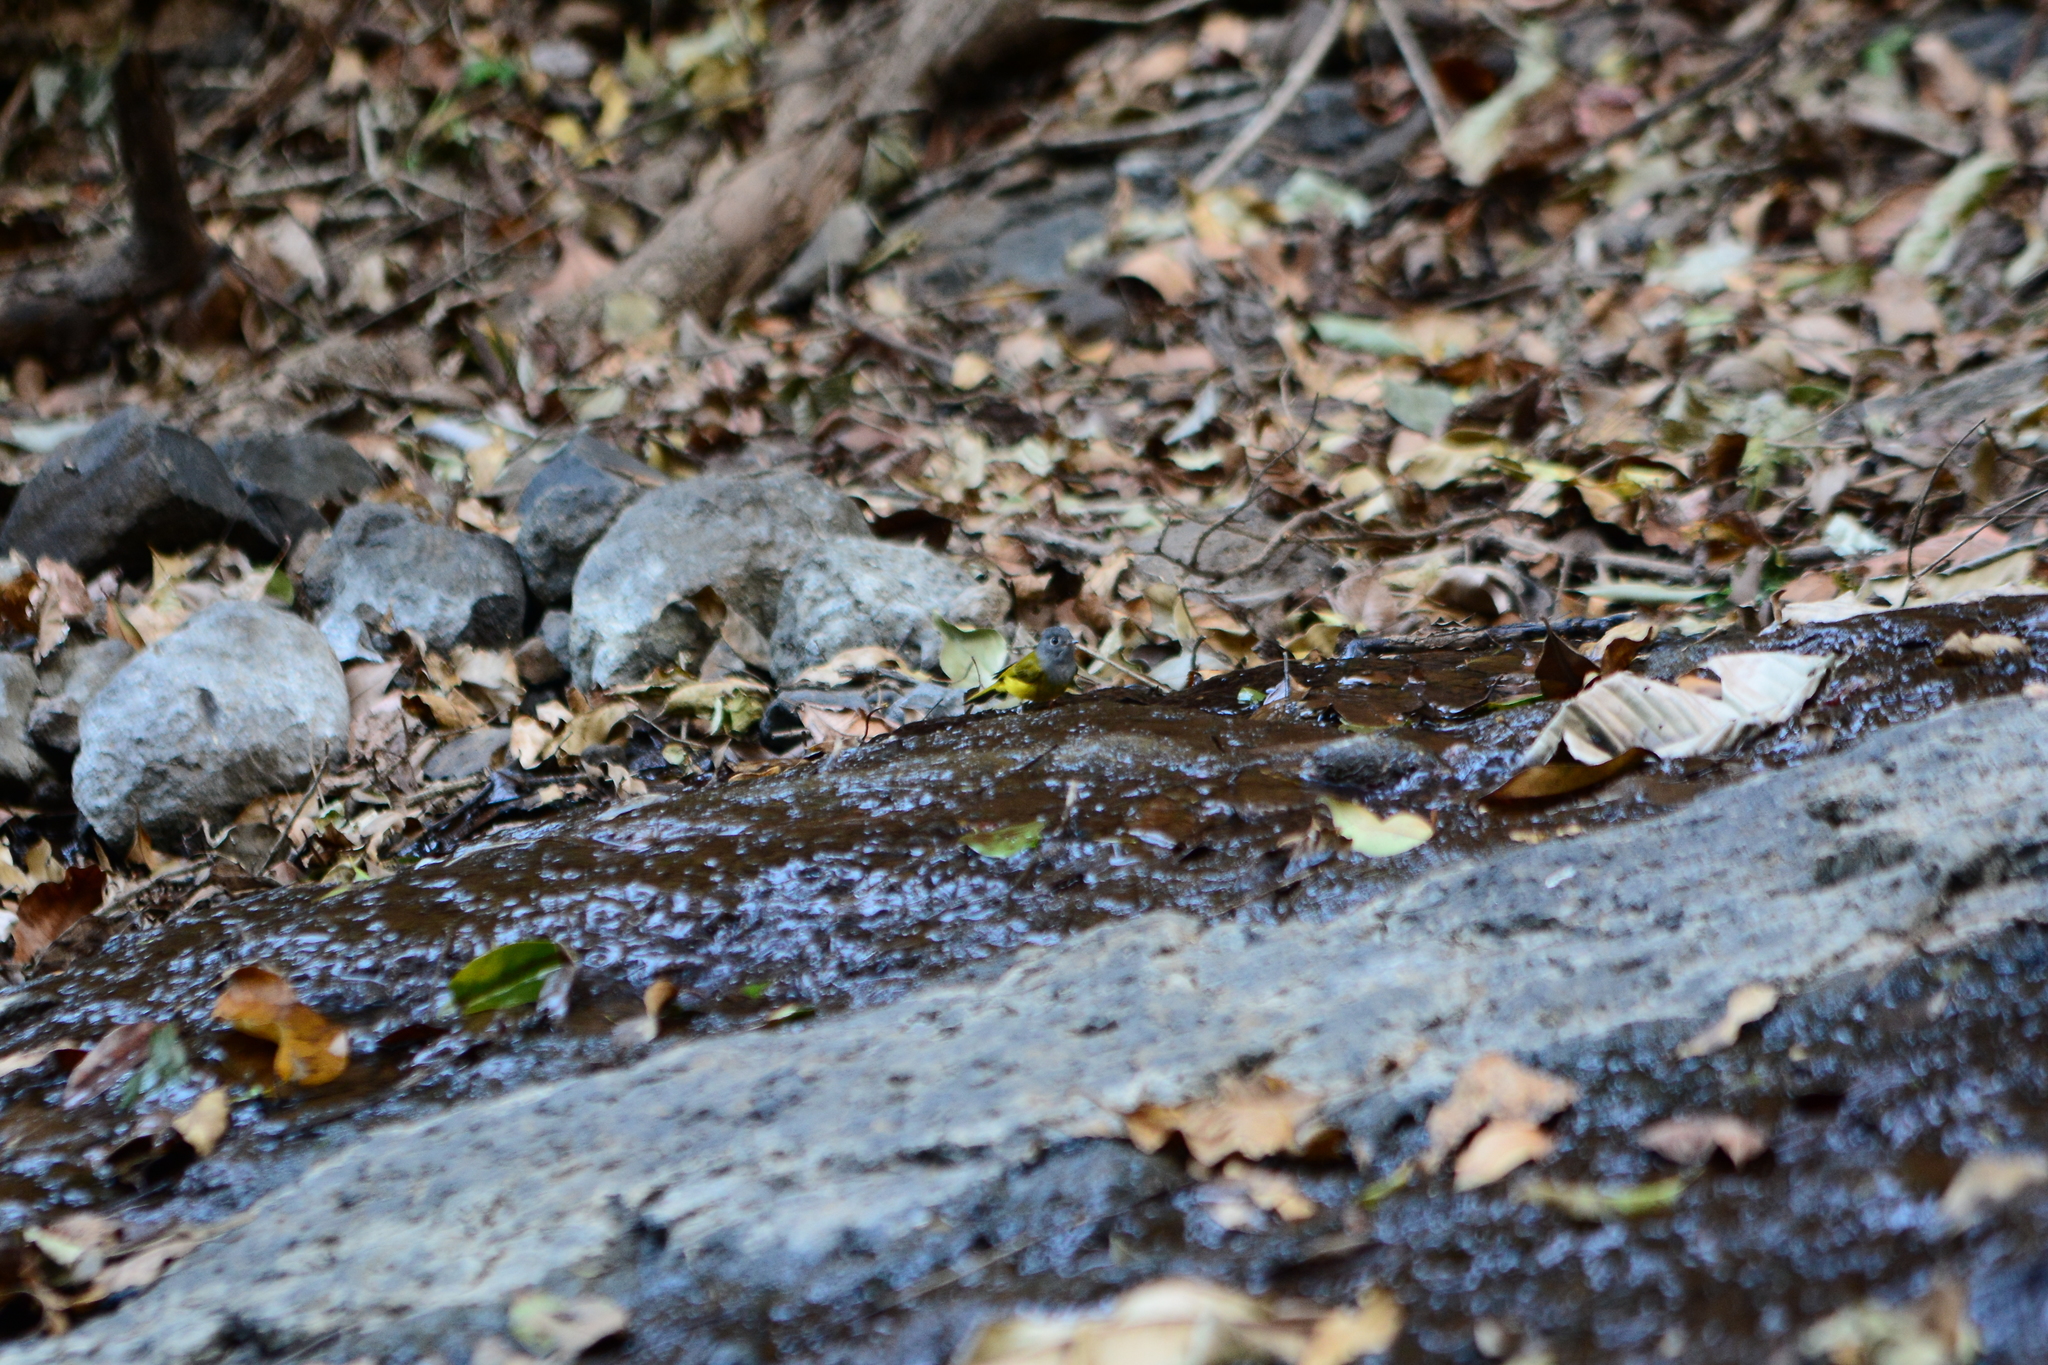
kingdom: Animalia
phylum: Chordata
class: Aves
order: Passeriformes
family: Stenostiridae
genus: Culicicapa
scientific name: Culicicapa ceylonensis
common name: Grey-headed canary-flycatcher
